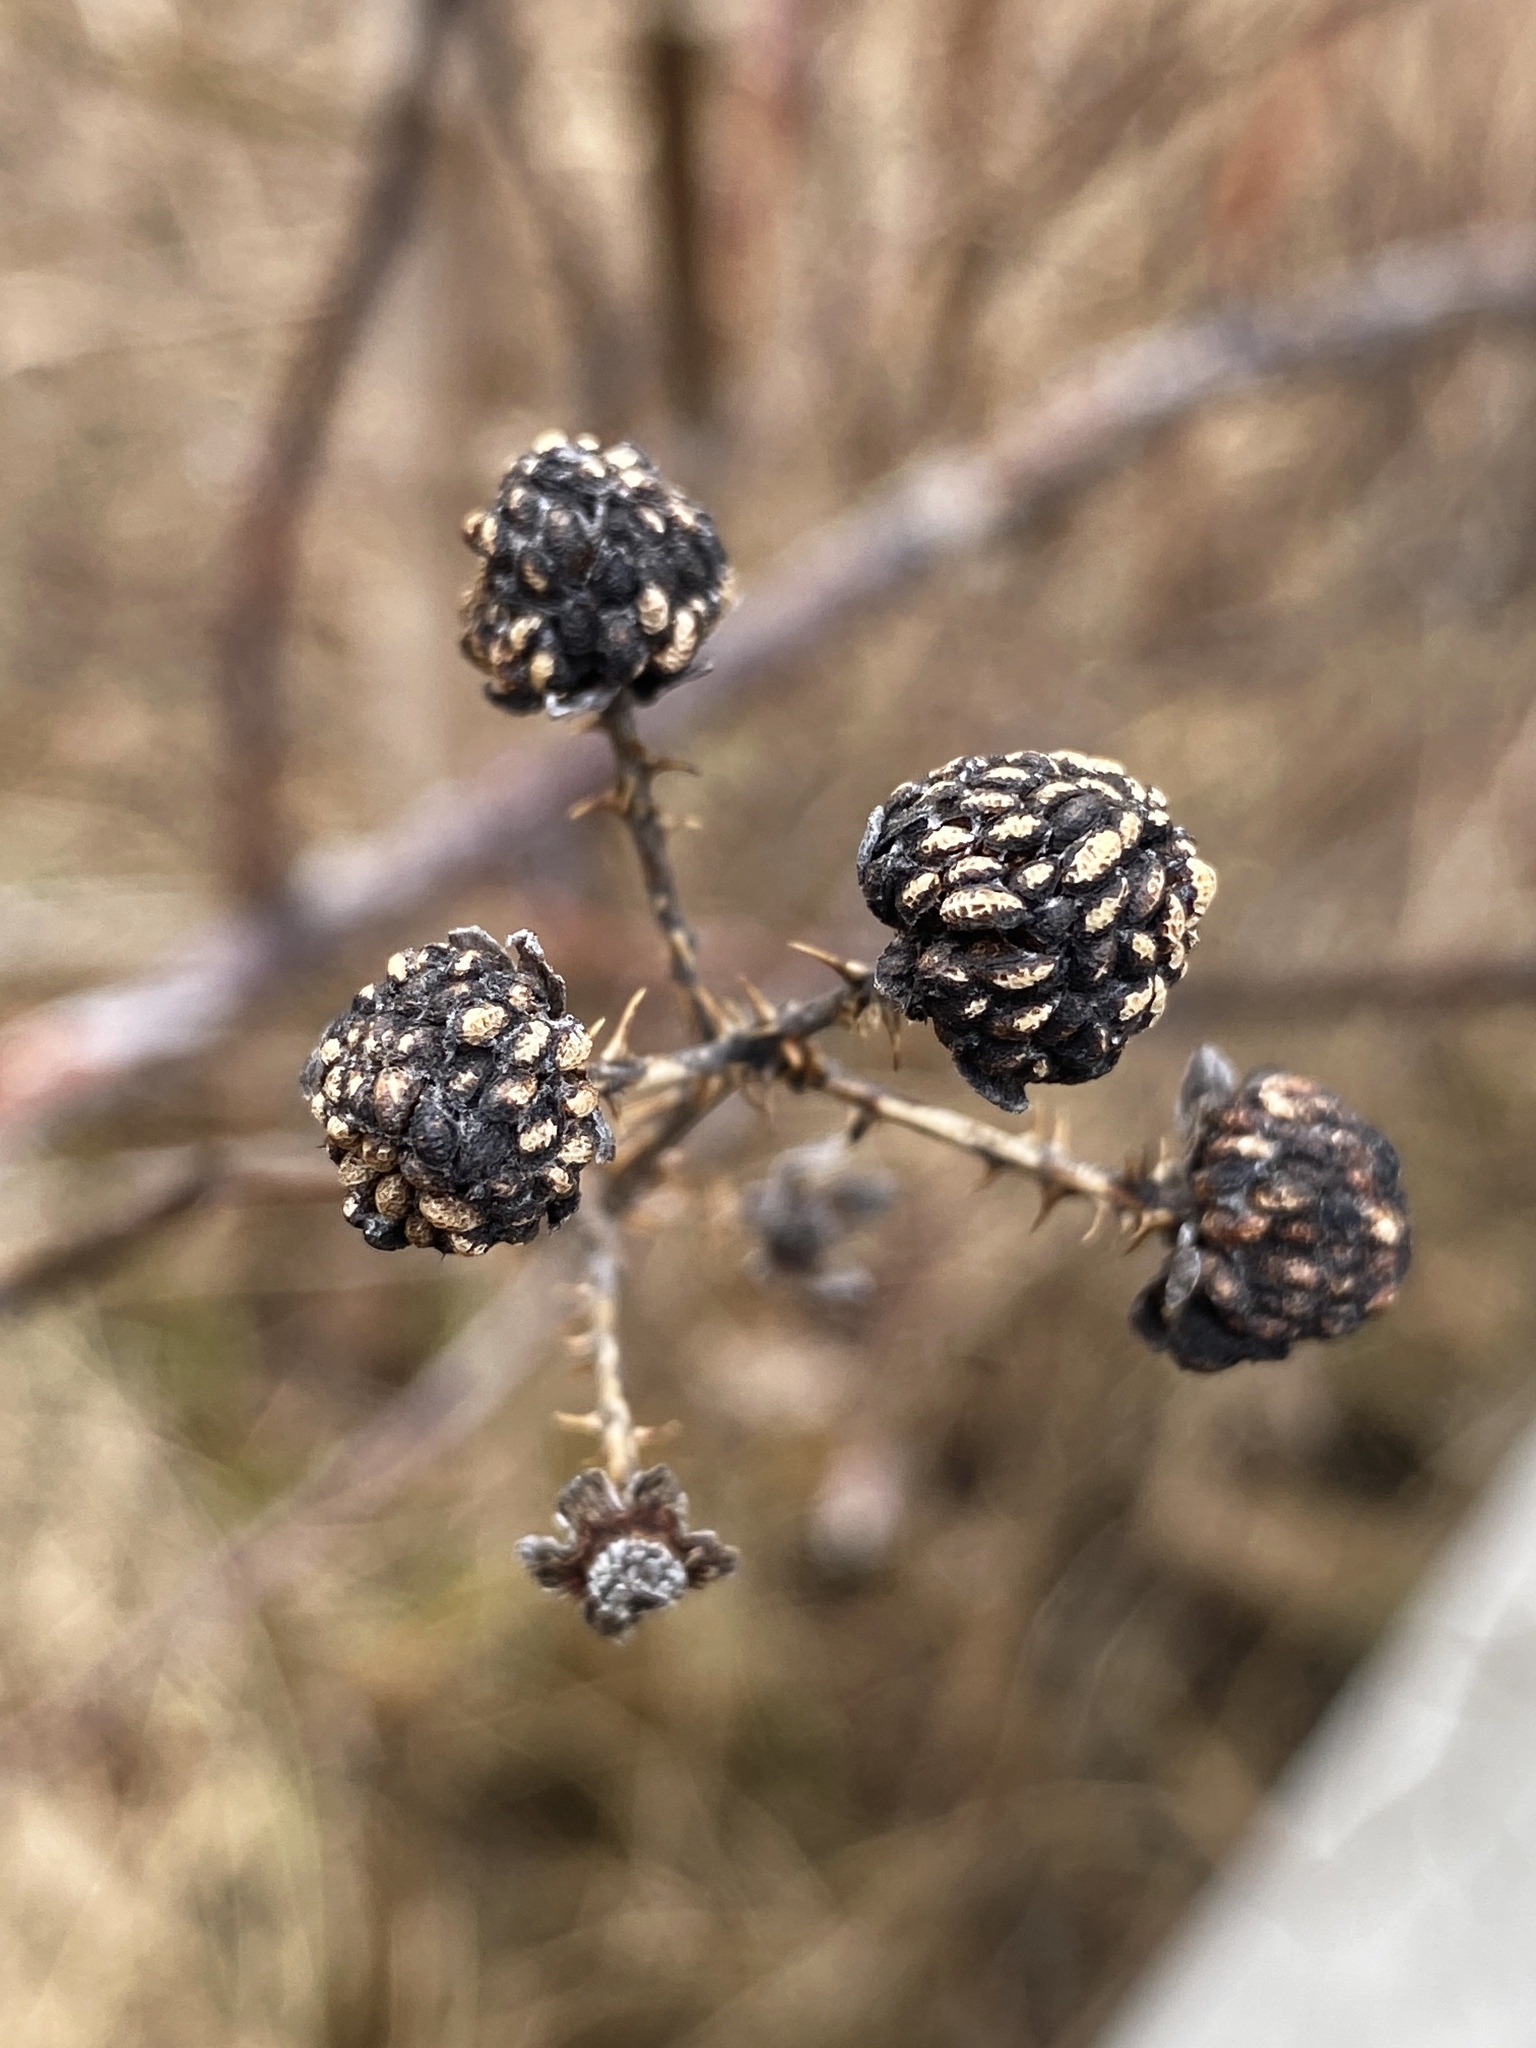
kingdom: Plantae
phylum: Tracheophyta
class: Magnoliopsida
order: Rosales
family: Rosaceae
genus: Rubus
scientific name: Rubus occidentalis
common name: Black raspberry
